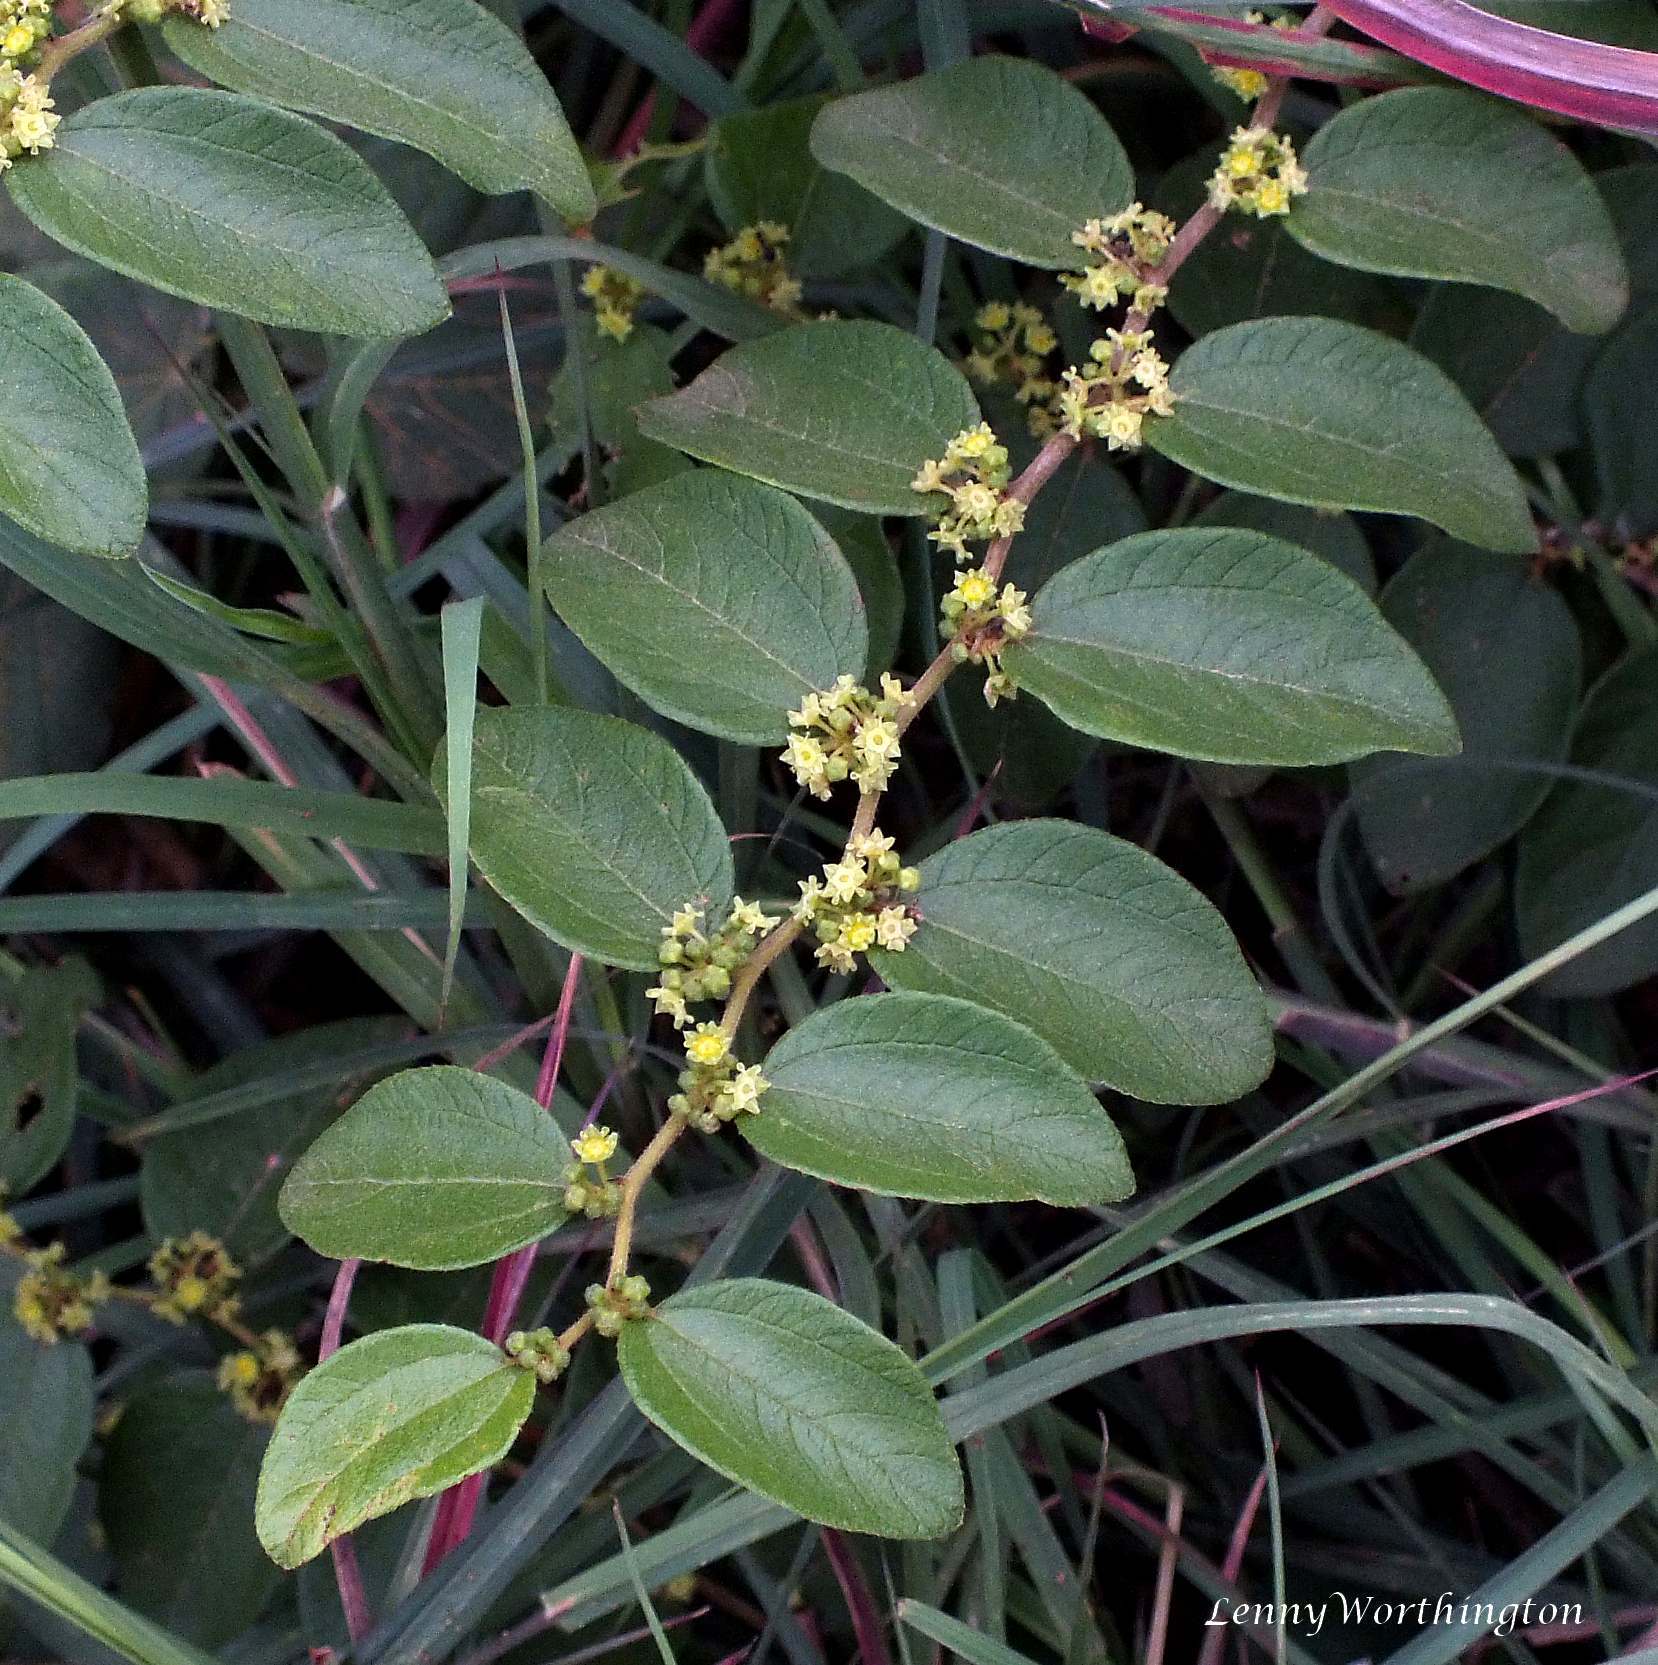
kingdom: Plantae
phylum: Tracheophyta
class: Magnoliopsida
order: Rosales
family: Rhamnaceae
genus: Ziziphus
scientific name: Ziziphus oenopolia
